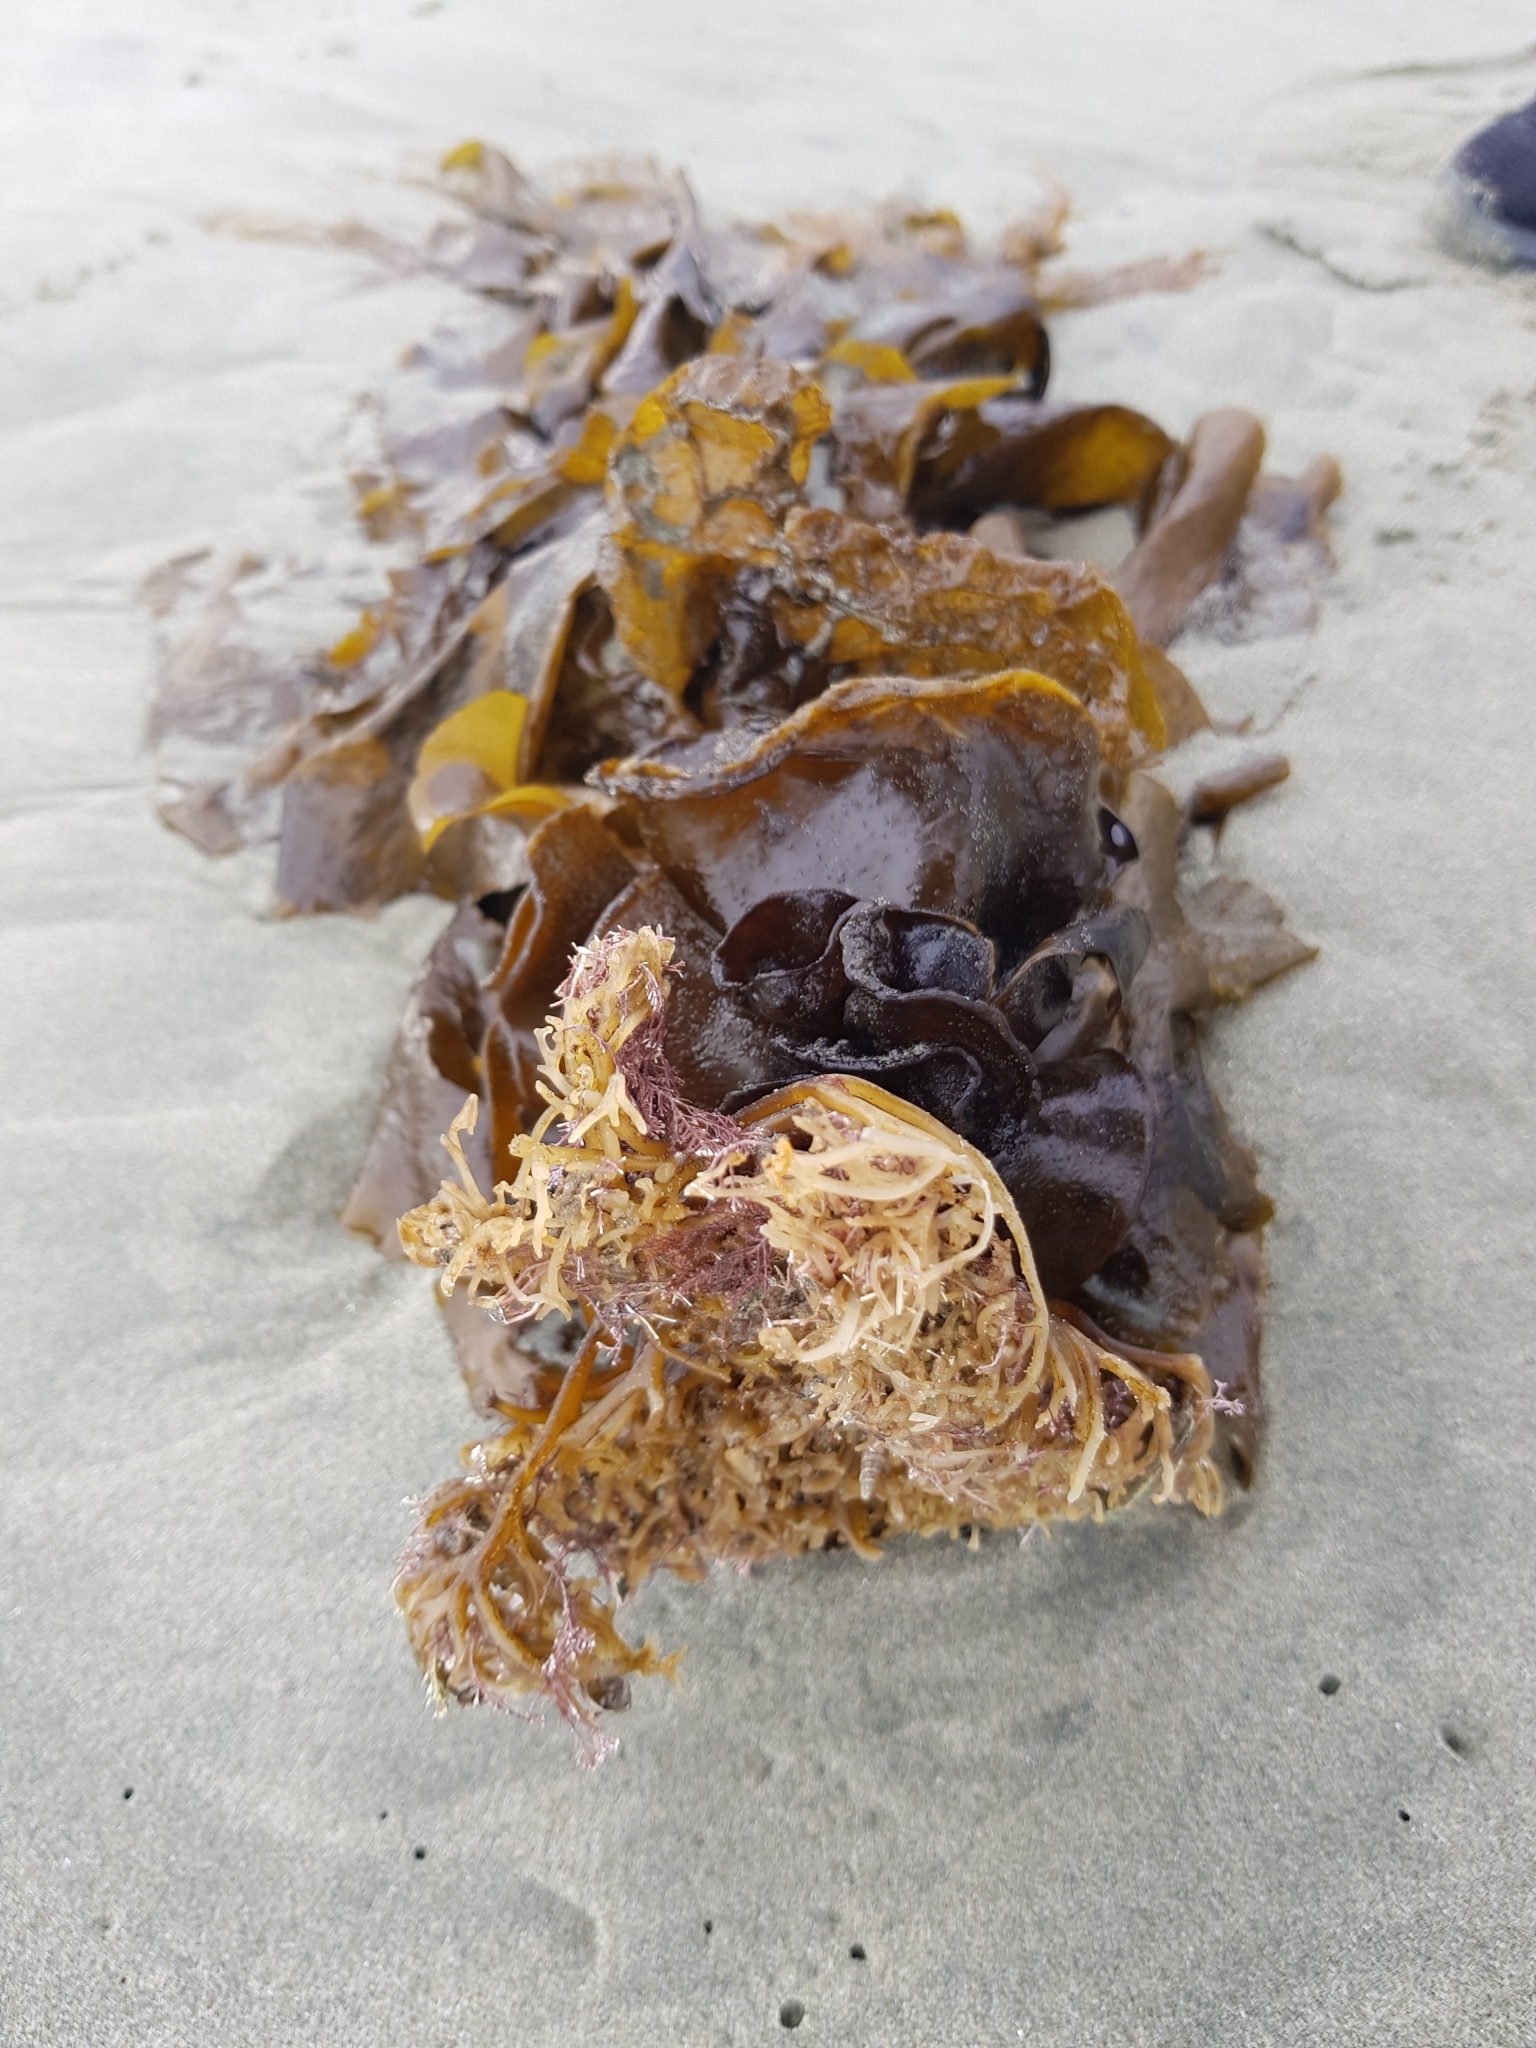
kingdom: Chromista
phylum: Ochrophyta
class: Phaeophyceae
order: Laminariales
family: Laminariaceae
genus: Macrocystis
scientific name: Macrocystis pyrifera
